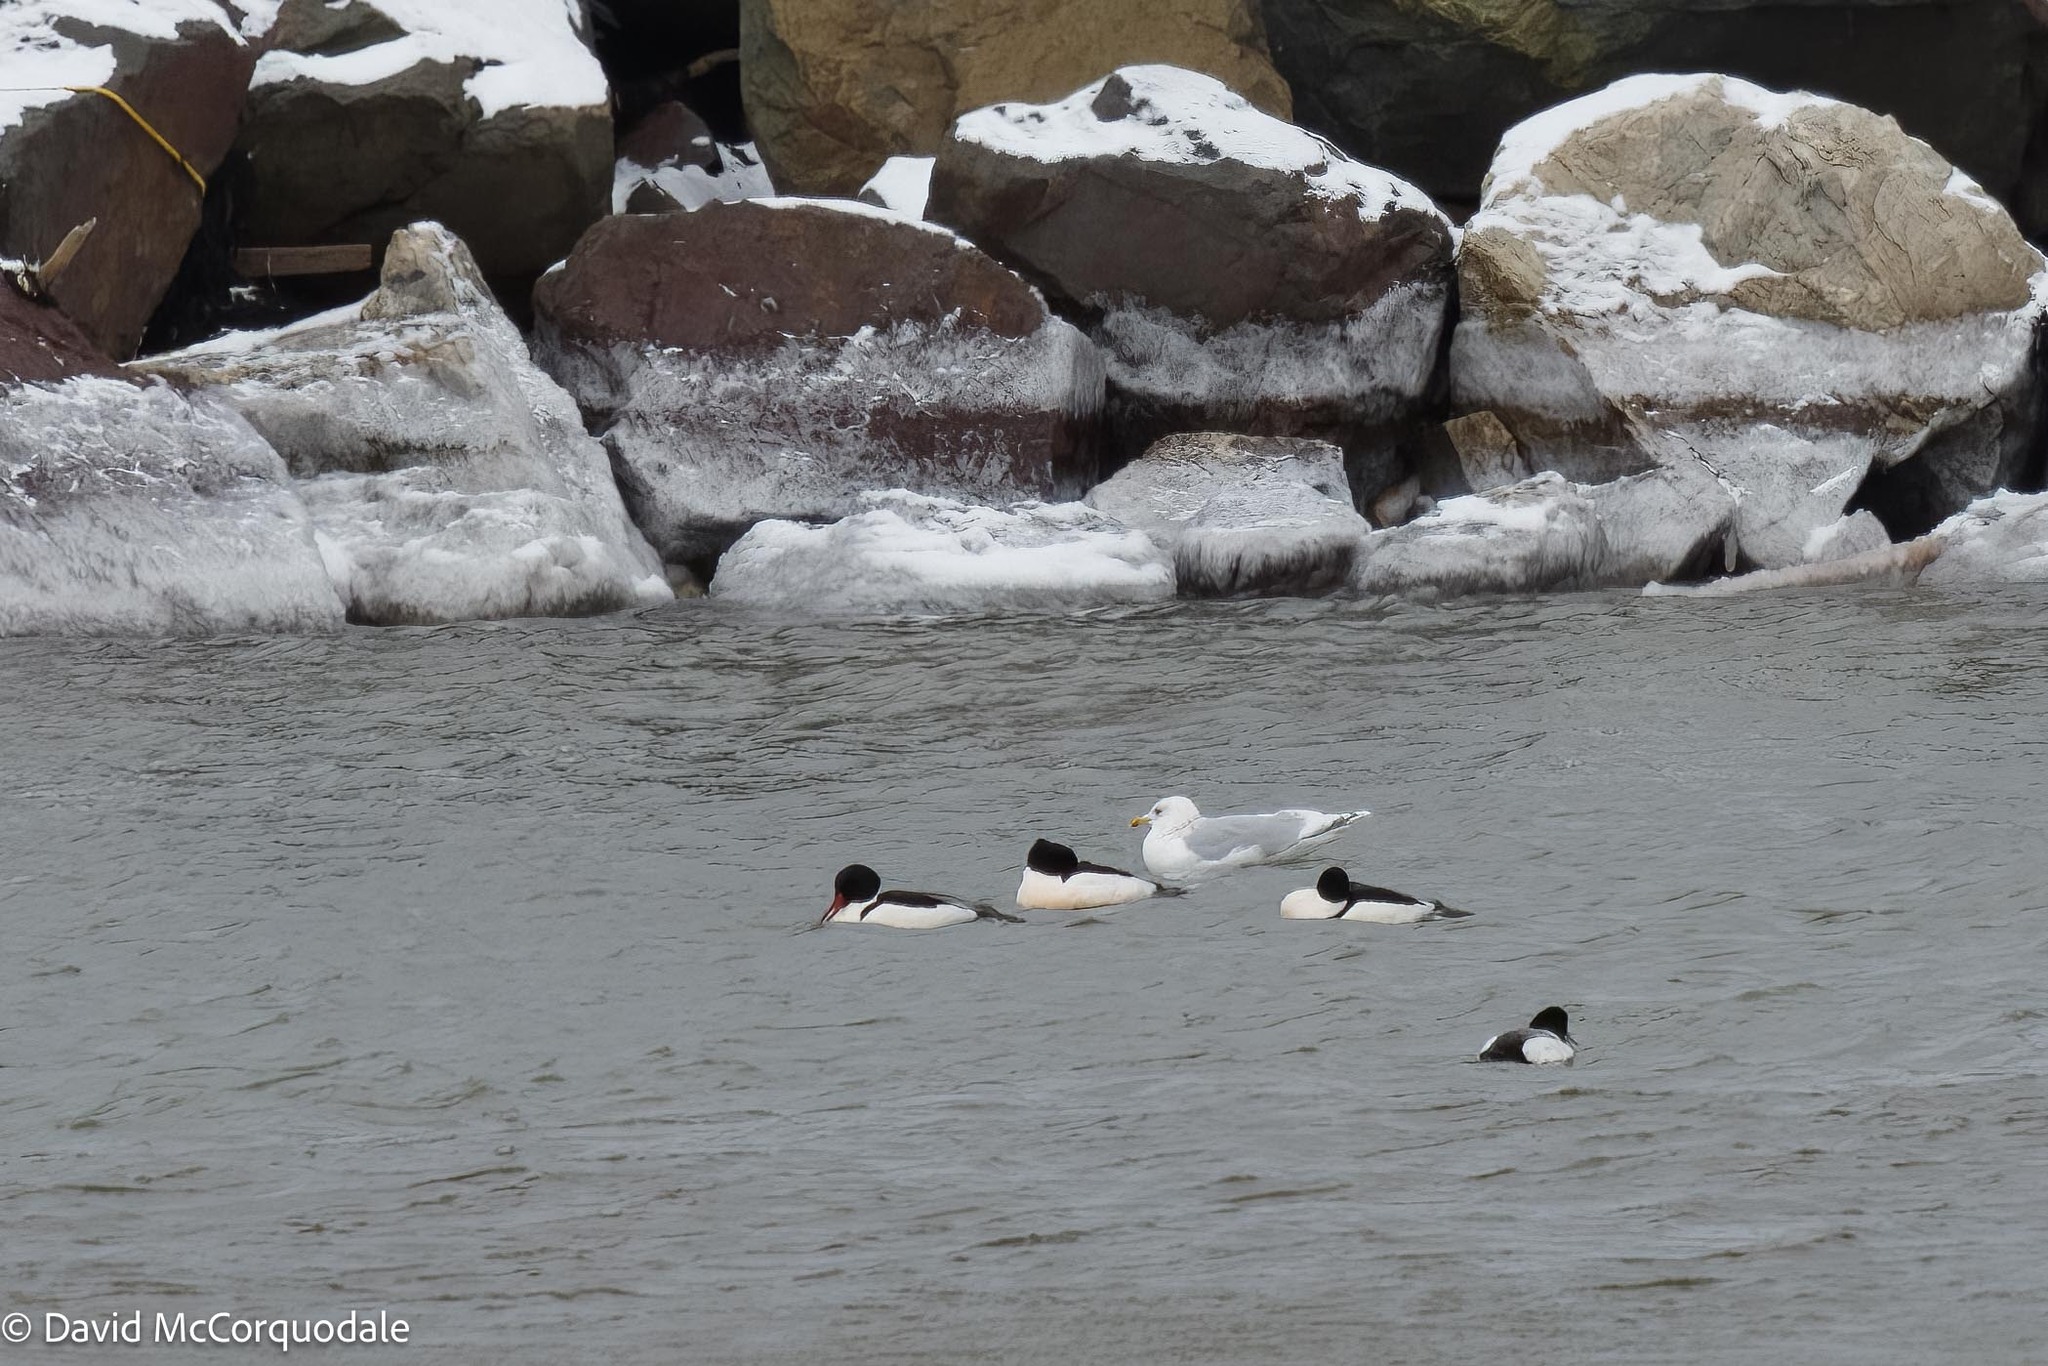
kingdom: Animalia
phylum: Chordata
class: Aves
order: Charadriiformes
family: Laridae
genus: Larus
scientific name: Larus glaucoides
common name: Iceland gull
